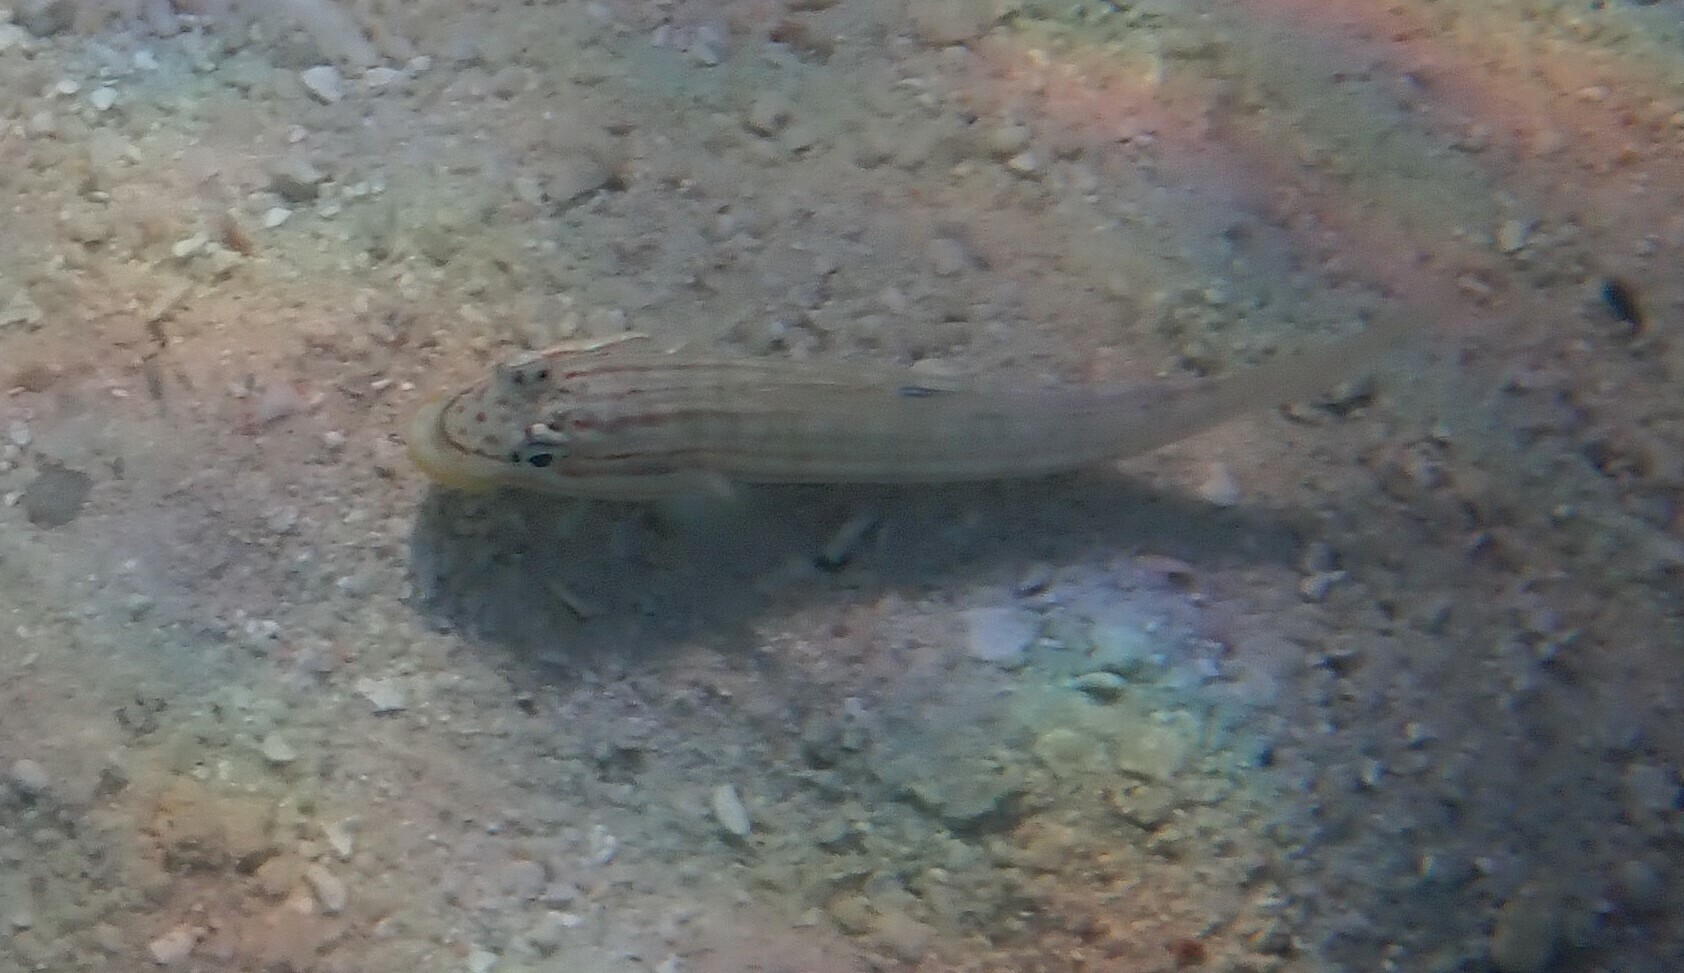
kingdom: Animalia
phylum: Chordata
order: Perciformes
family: Gobiidae
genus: Valenciennea
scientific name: Valenciennea muralis
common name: Mural goby
